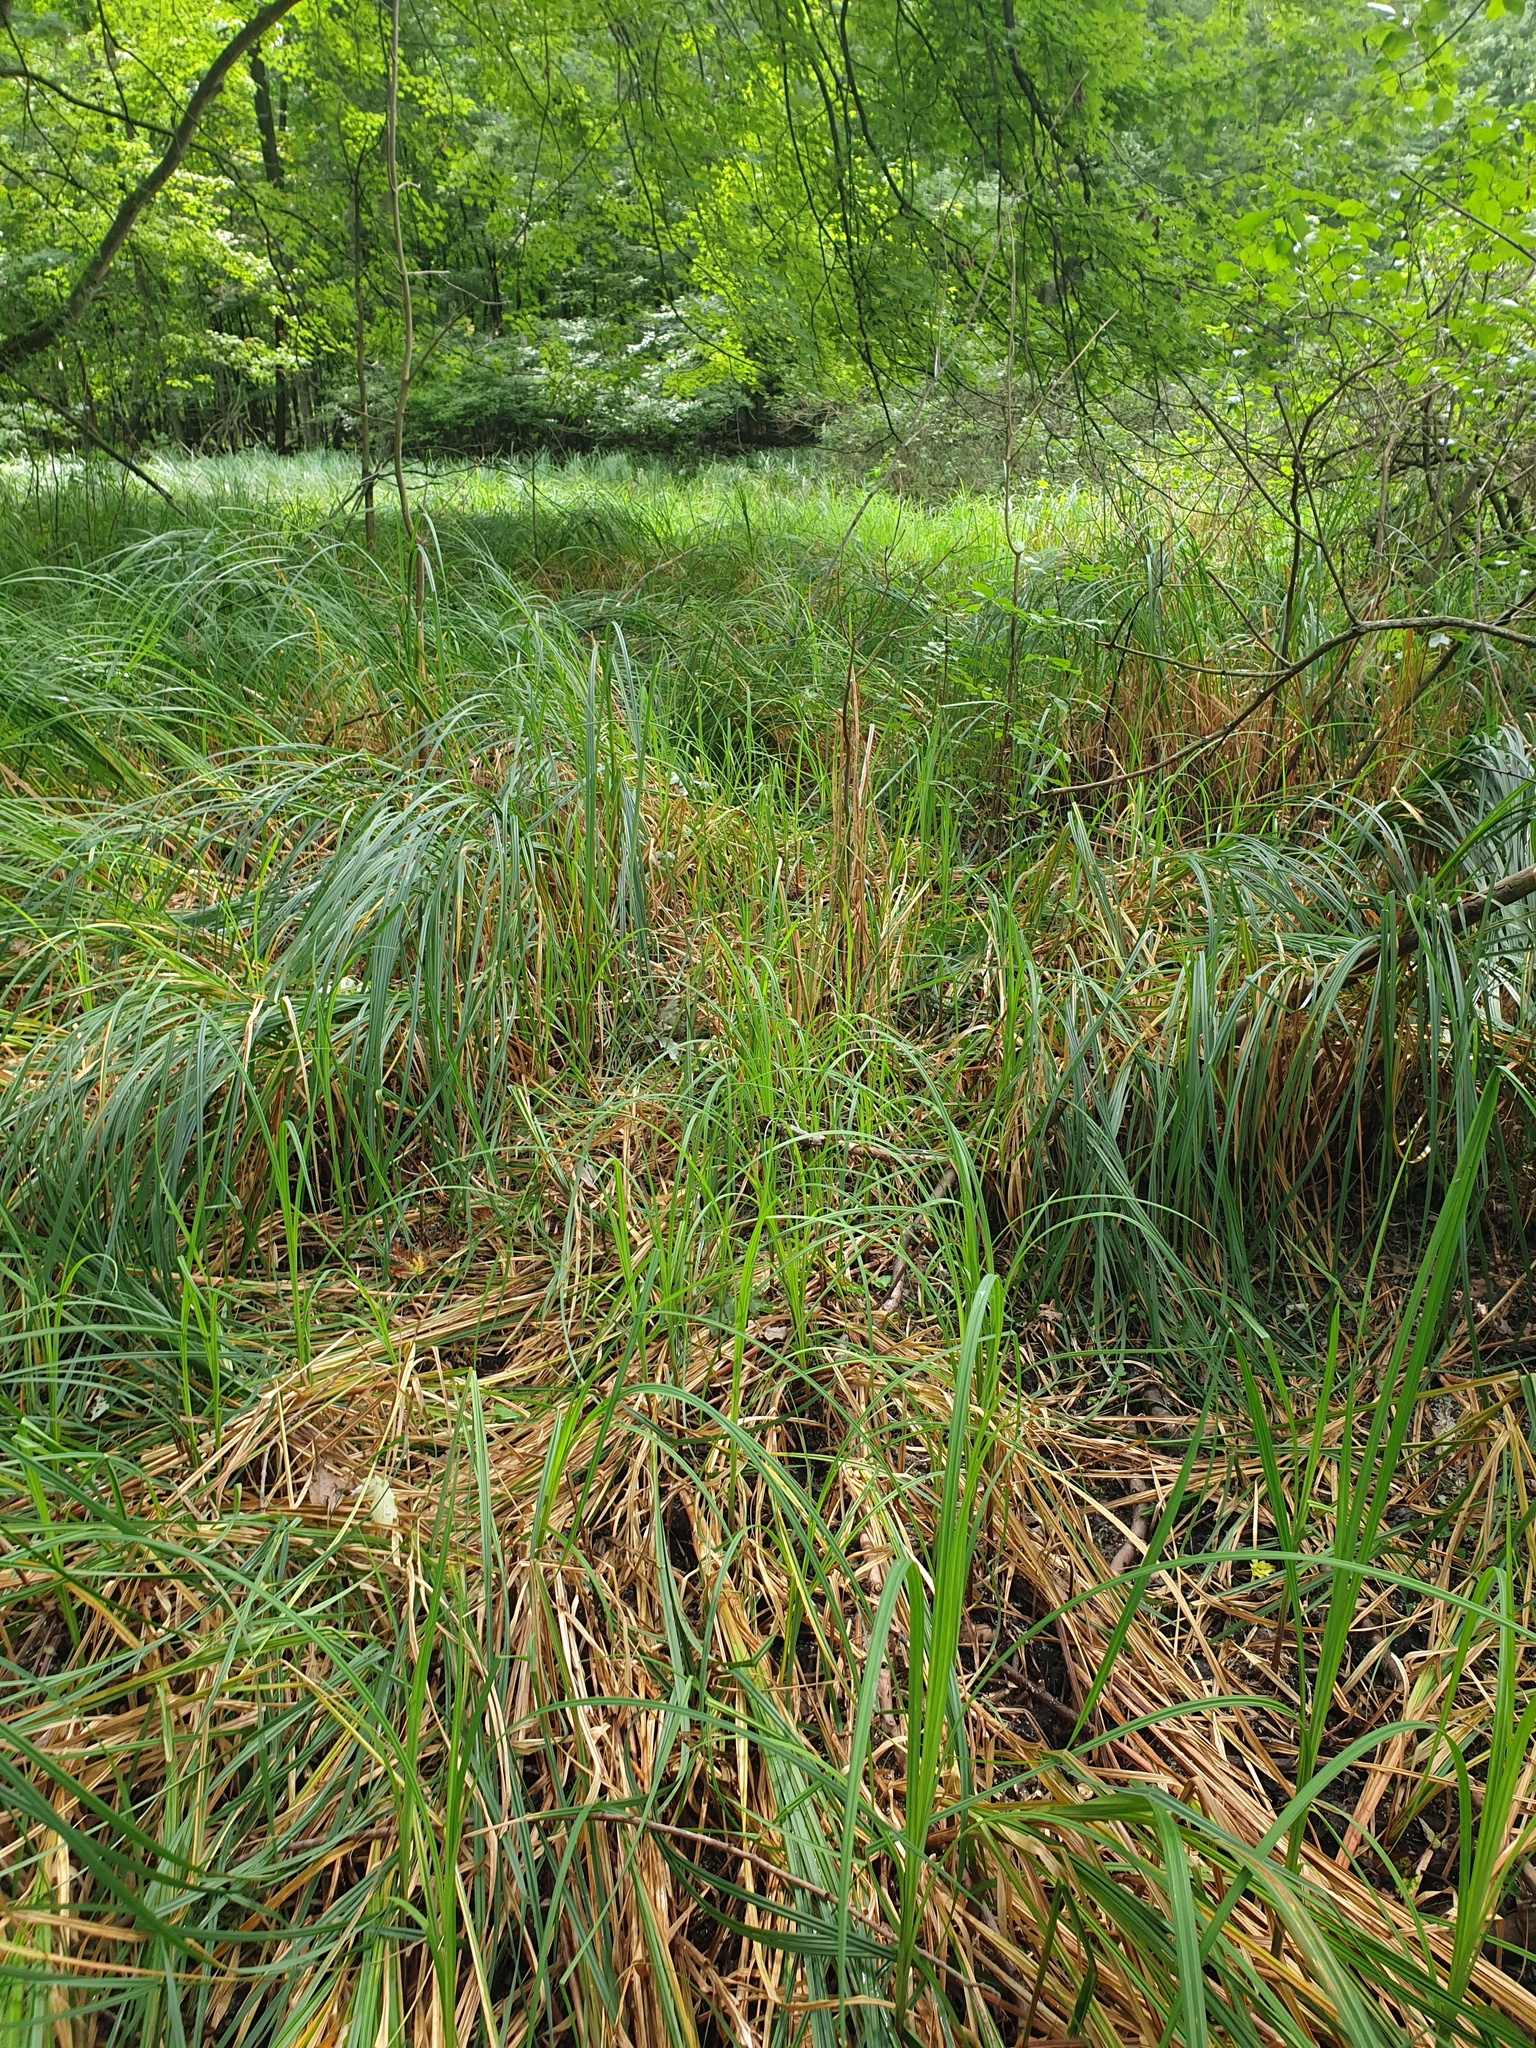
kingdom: Plantae
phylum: Tracheophyta
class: Liliopsida
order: Poales
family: Cyperaceae
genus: Carex
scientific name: Carex lupuliformis
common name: False hop sedge
